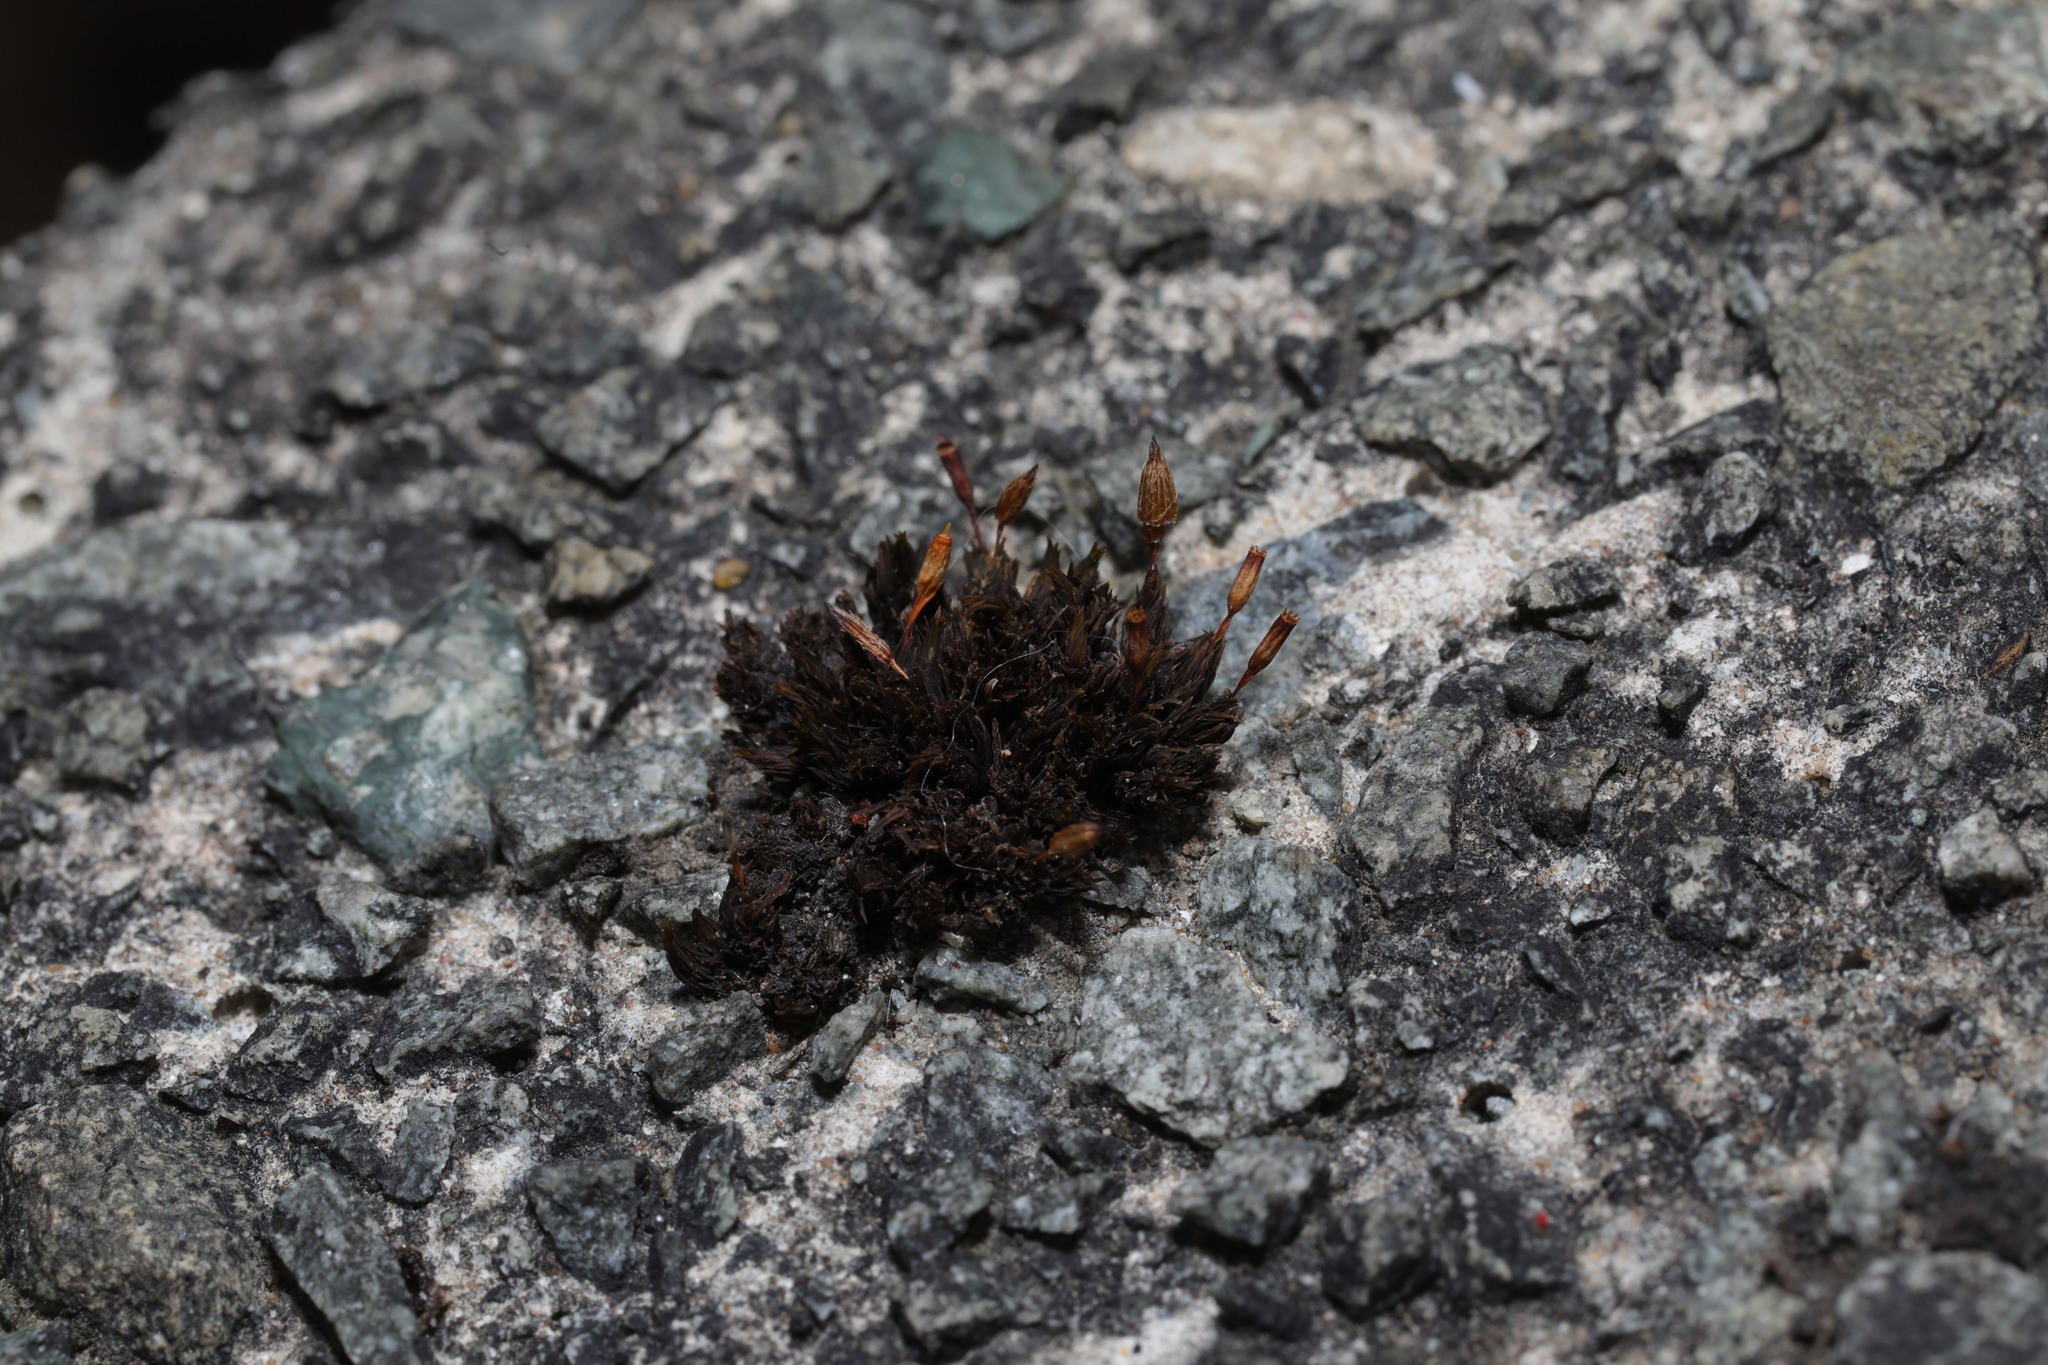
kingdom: Plantae
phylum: Bryophyta
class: Bryopsida
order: Orthotrichales
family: Orthotrichaceae
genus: Orthotrichum
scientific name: Orthotrichum anomalum
